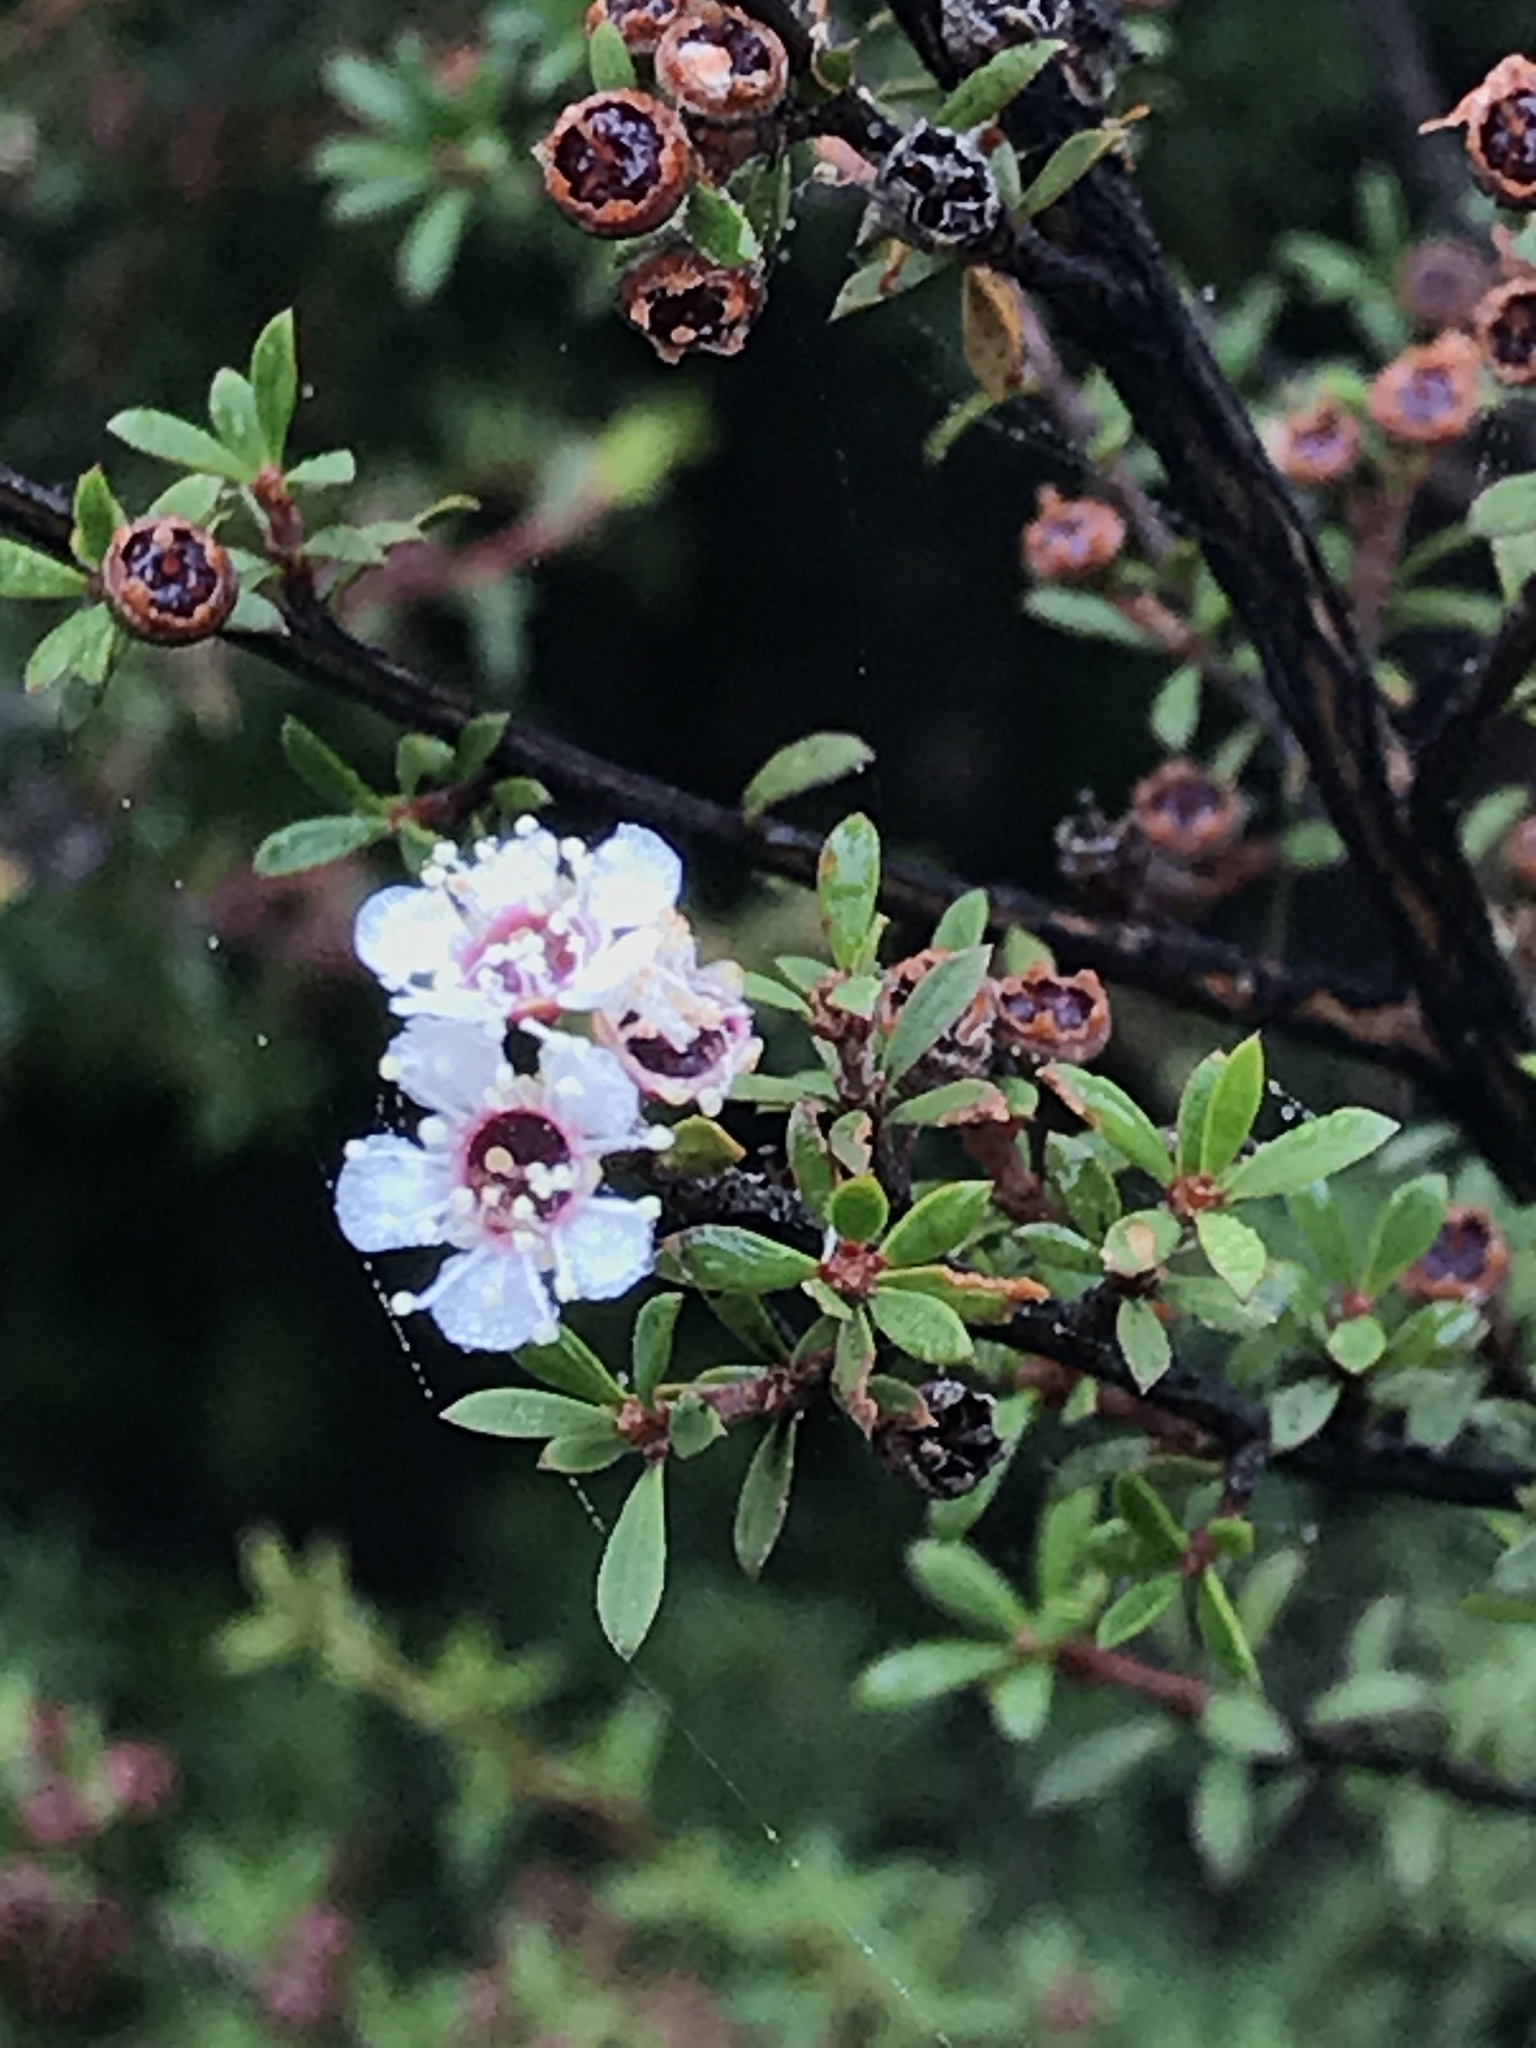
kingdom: Plantae
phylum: Tracheophyta
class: Magnoliopsida
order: Myrtales
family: Myrtaceae
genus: Leptospermum
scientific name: Leptospermum scoparium
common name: Broom tea-tree
